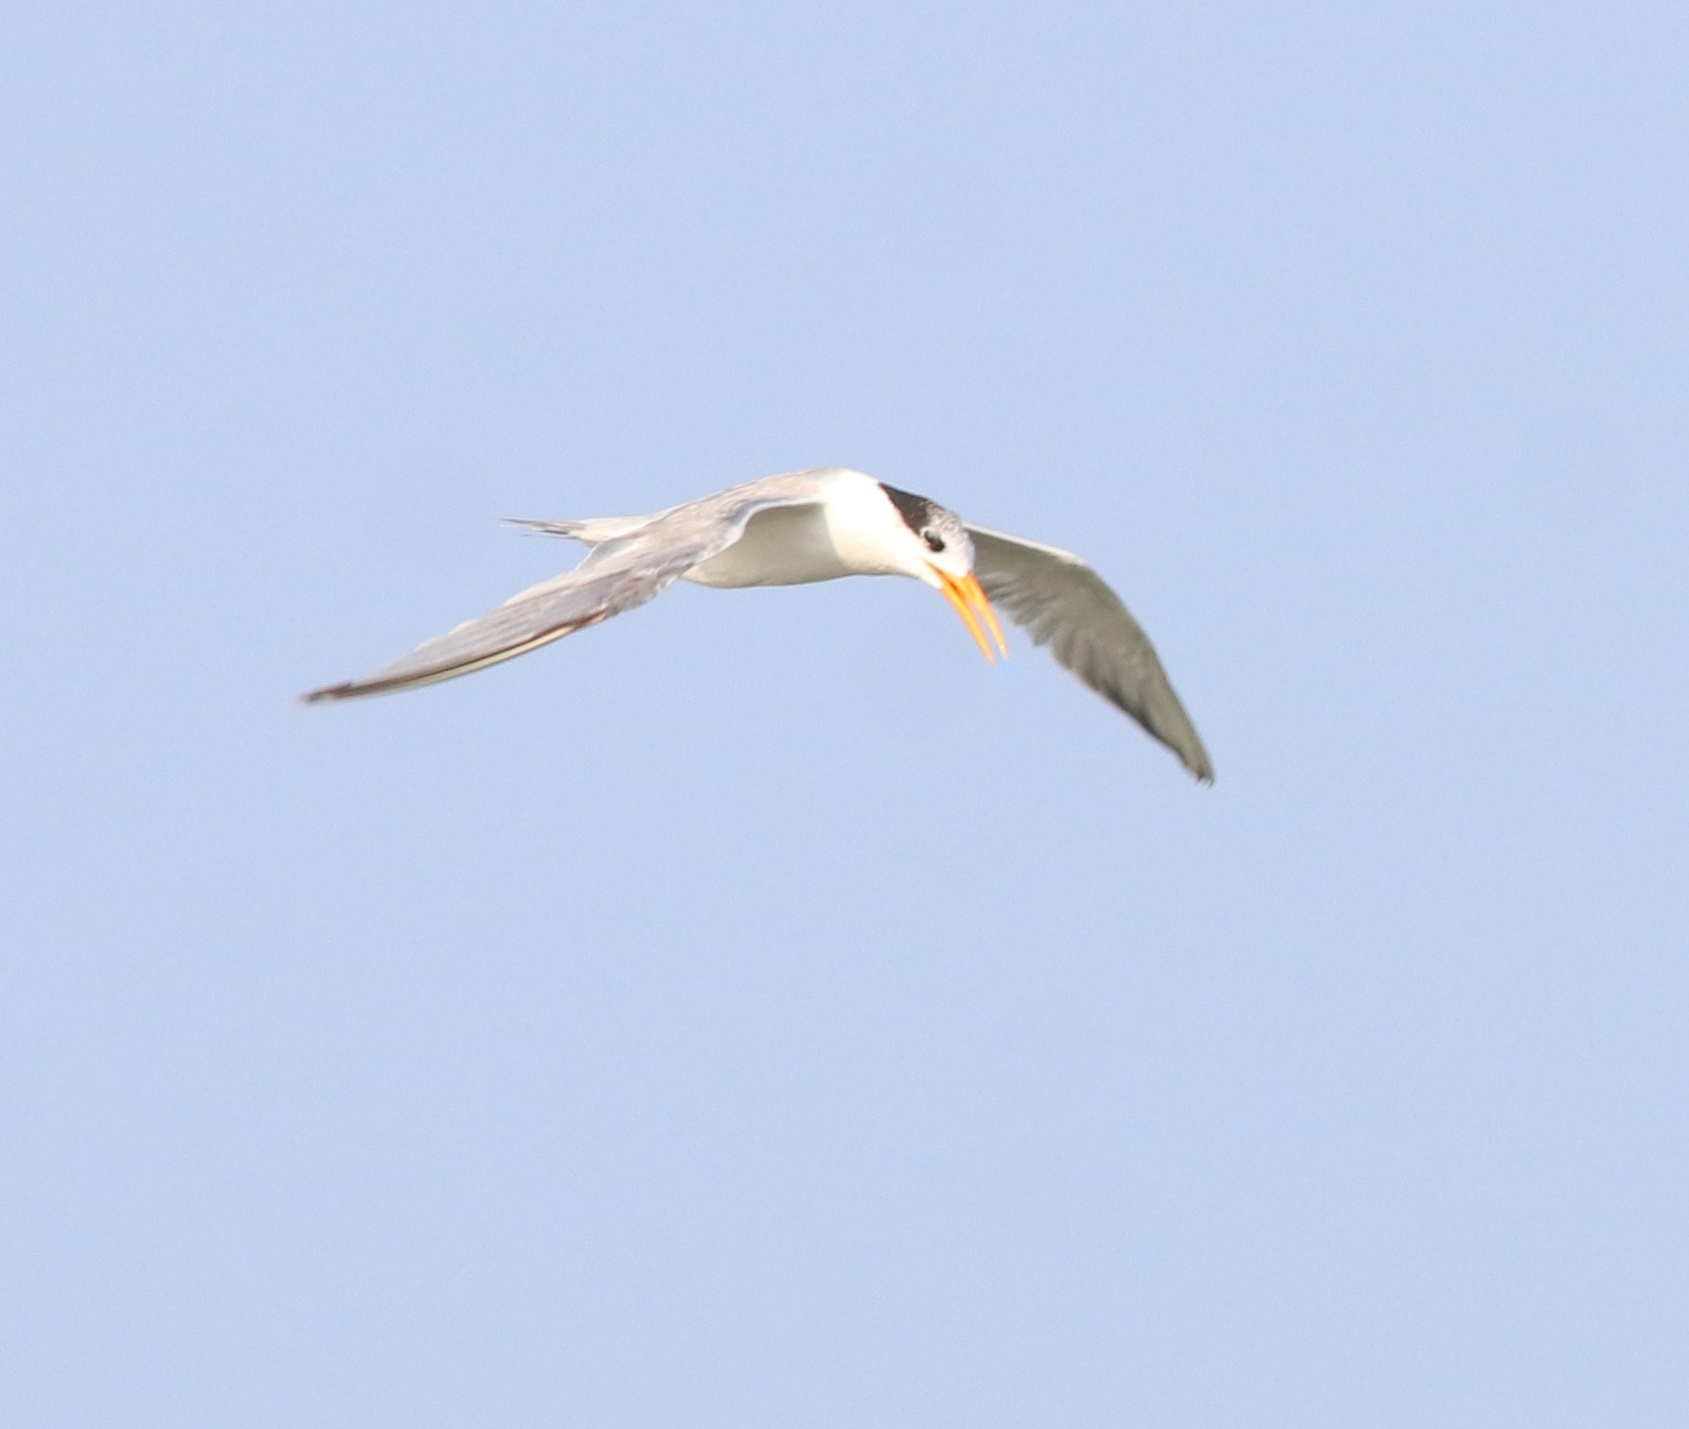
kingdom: Animalia
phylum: Chordata
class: Aves
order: Charadriiformes
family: Laridae
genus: Thalasseus
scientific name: Thalasseus bengalensis
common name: Lesser crested tern
